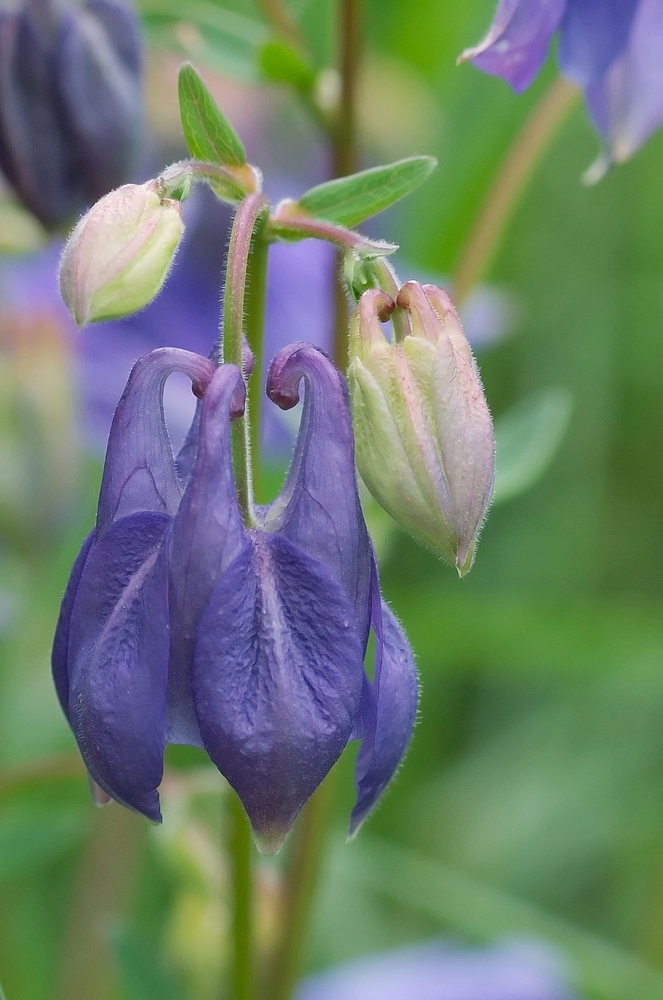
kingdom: Plantae
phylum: Tracheophyta
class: Magnoliopsida
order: Ranunculales
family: Ranunculaceae
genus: Aquilegia
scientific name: Aquilegia vulgaris
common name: Columbine
